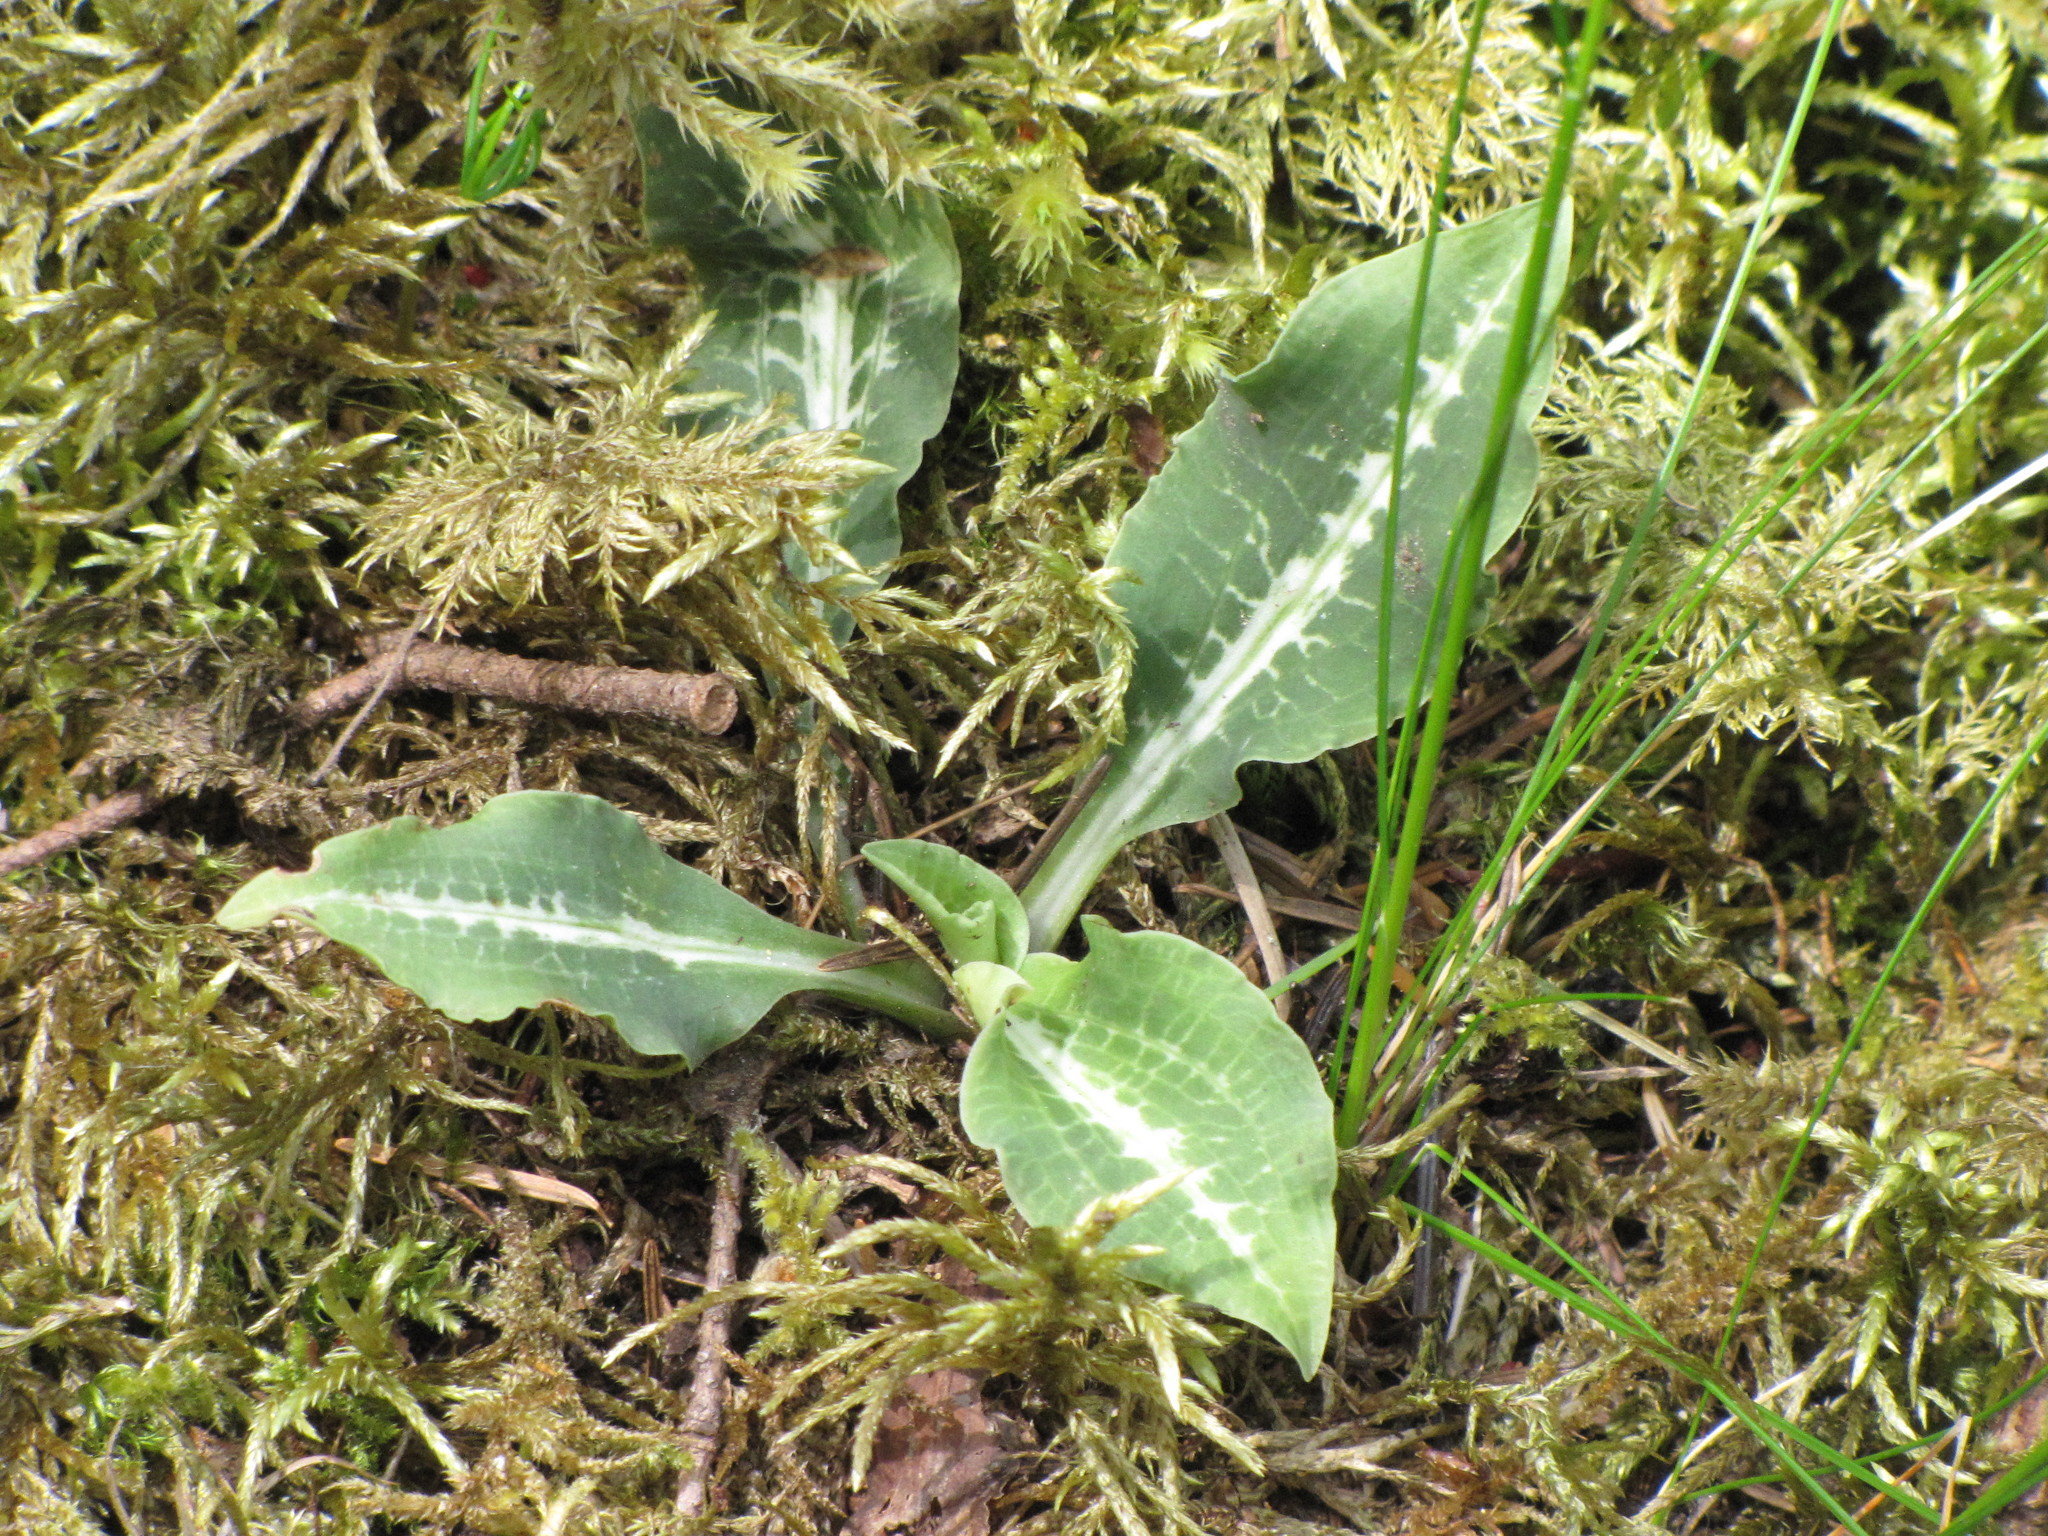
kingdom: Plantae
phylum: Tracheophyta
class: Liliopsida
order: Asparagales
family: Orchidaceae
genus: Goodyera
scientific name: Goodyera oblongifolia
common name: Giant rattlesnake-plantain
